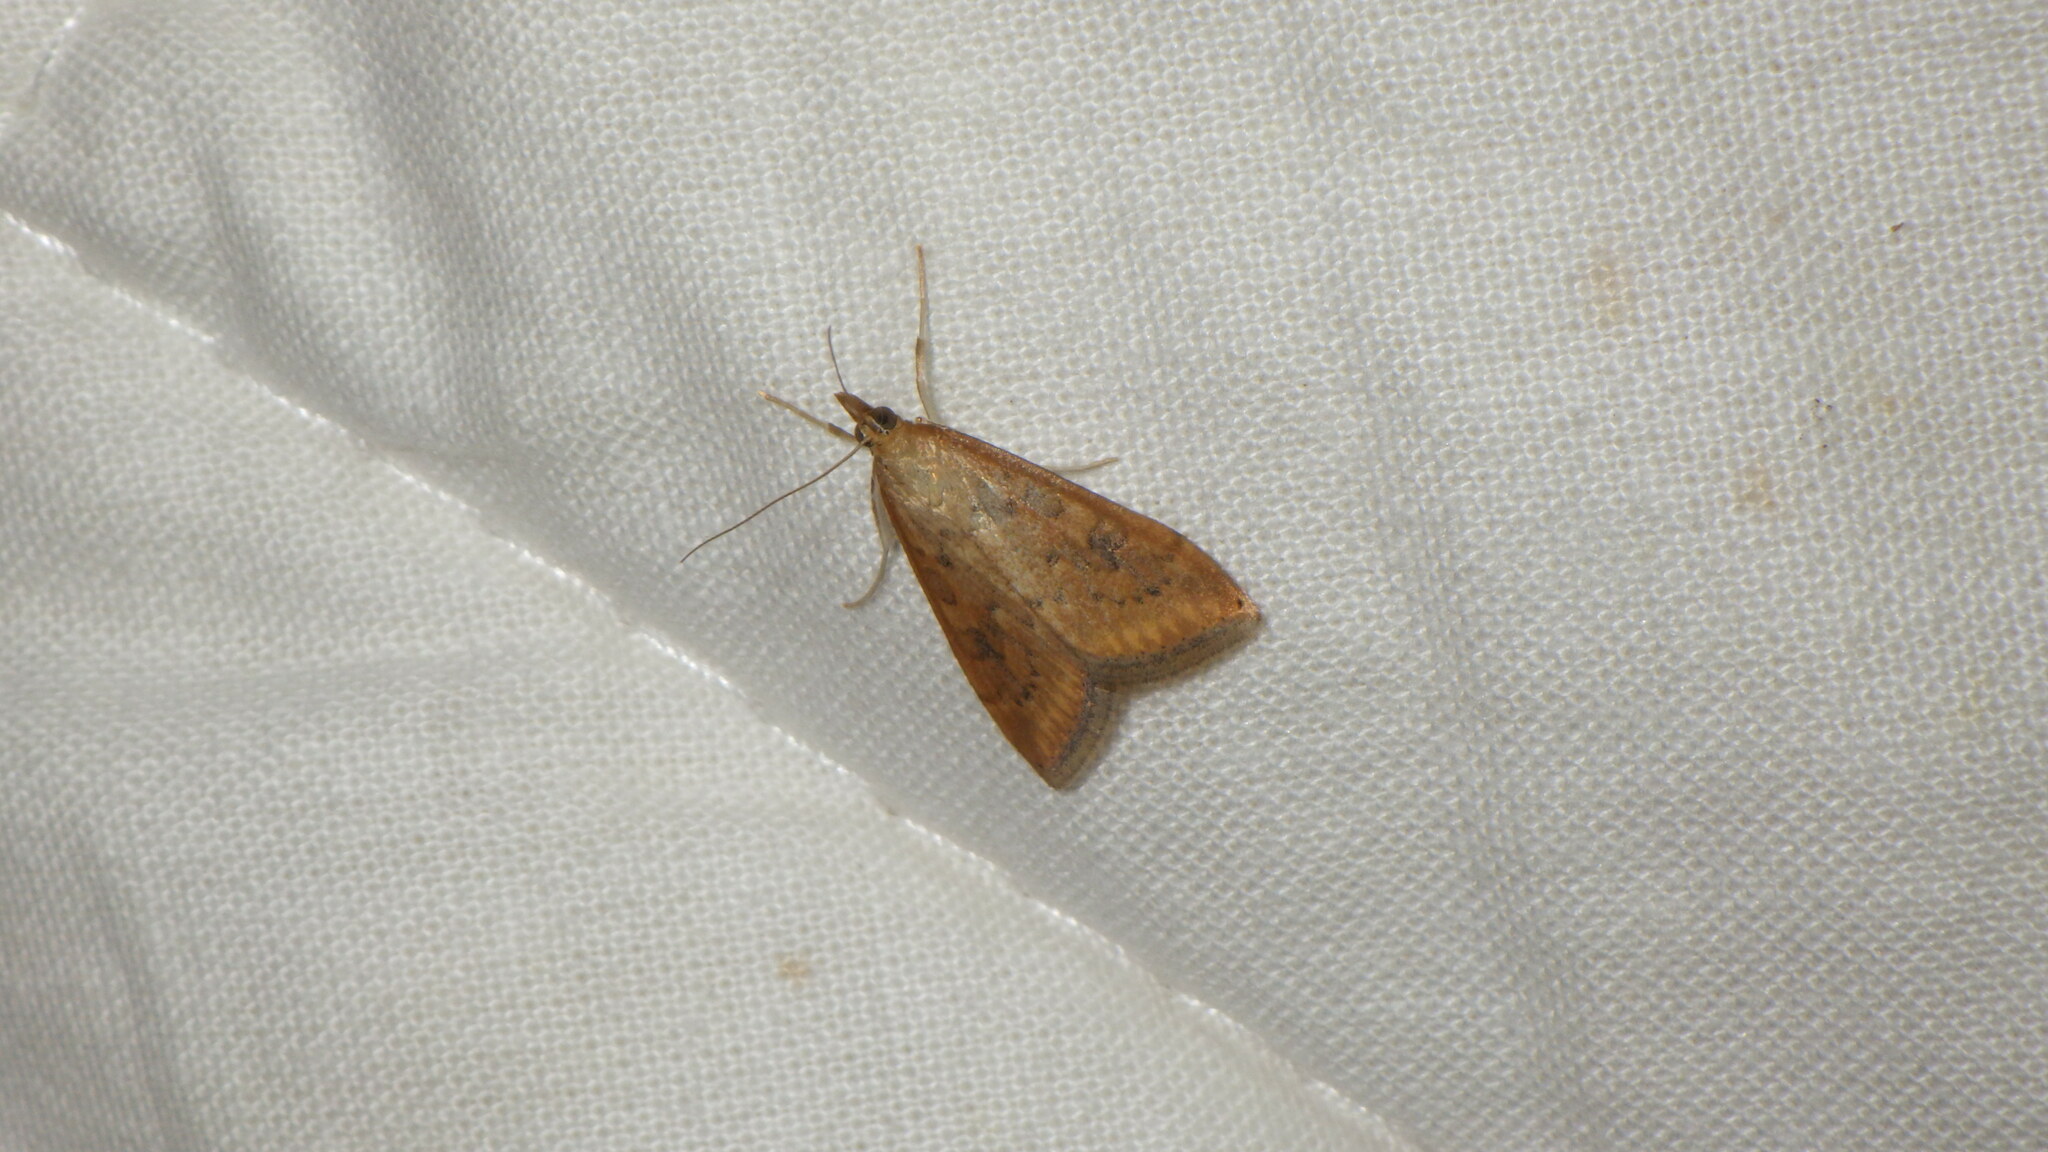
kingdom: Animalia
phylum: Arthropoda
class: Insecta
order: Lepidoptera
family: Crambidae
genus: Udea
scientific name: Udea ferrugalis
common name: Rusty dot
